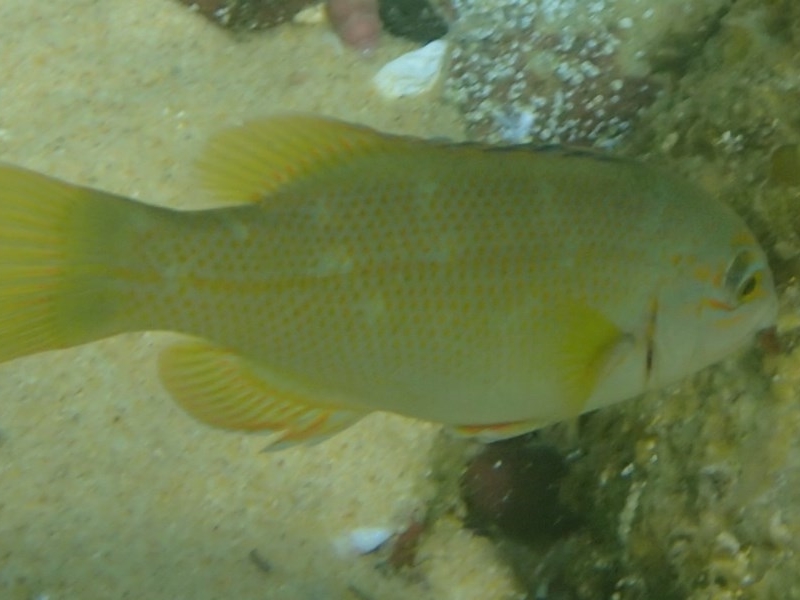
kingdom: Animalia
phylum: Chordata
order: Perciformes
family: Labridae
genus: Achoerodus
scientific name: Achoerodus viridis
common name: Brown groper
